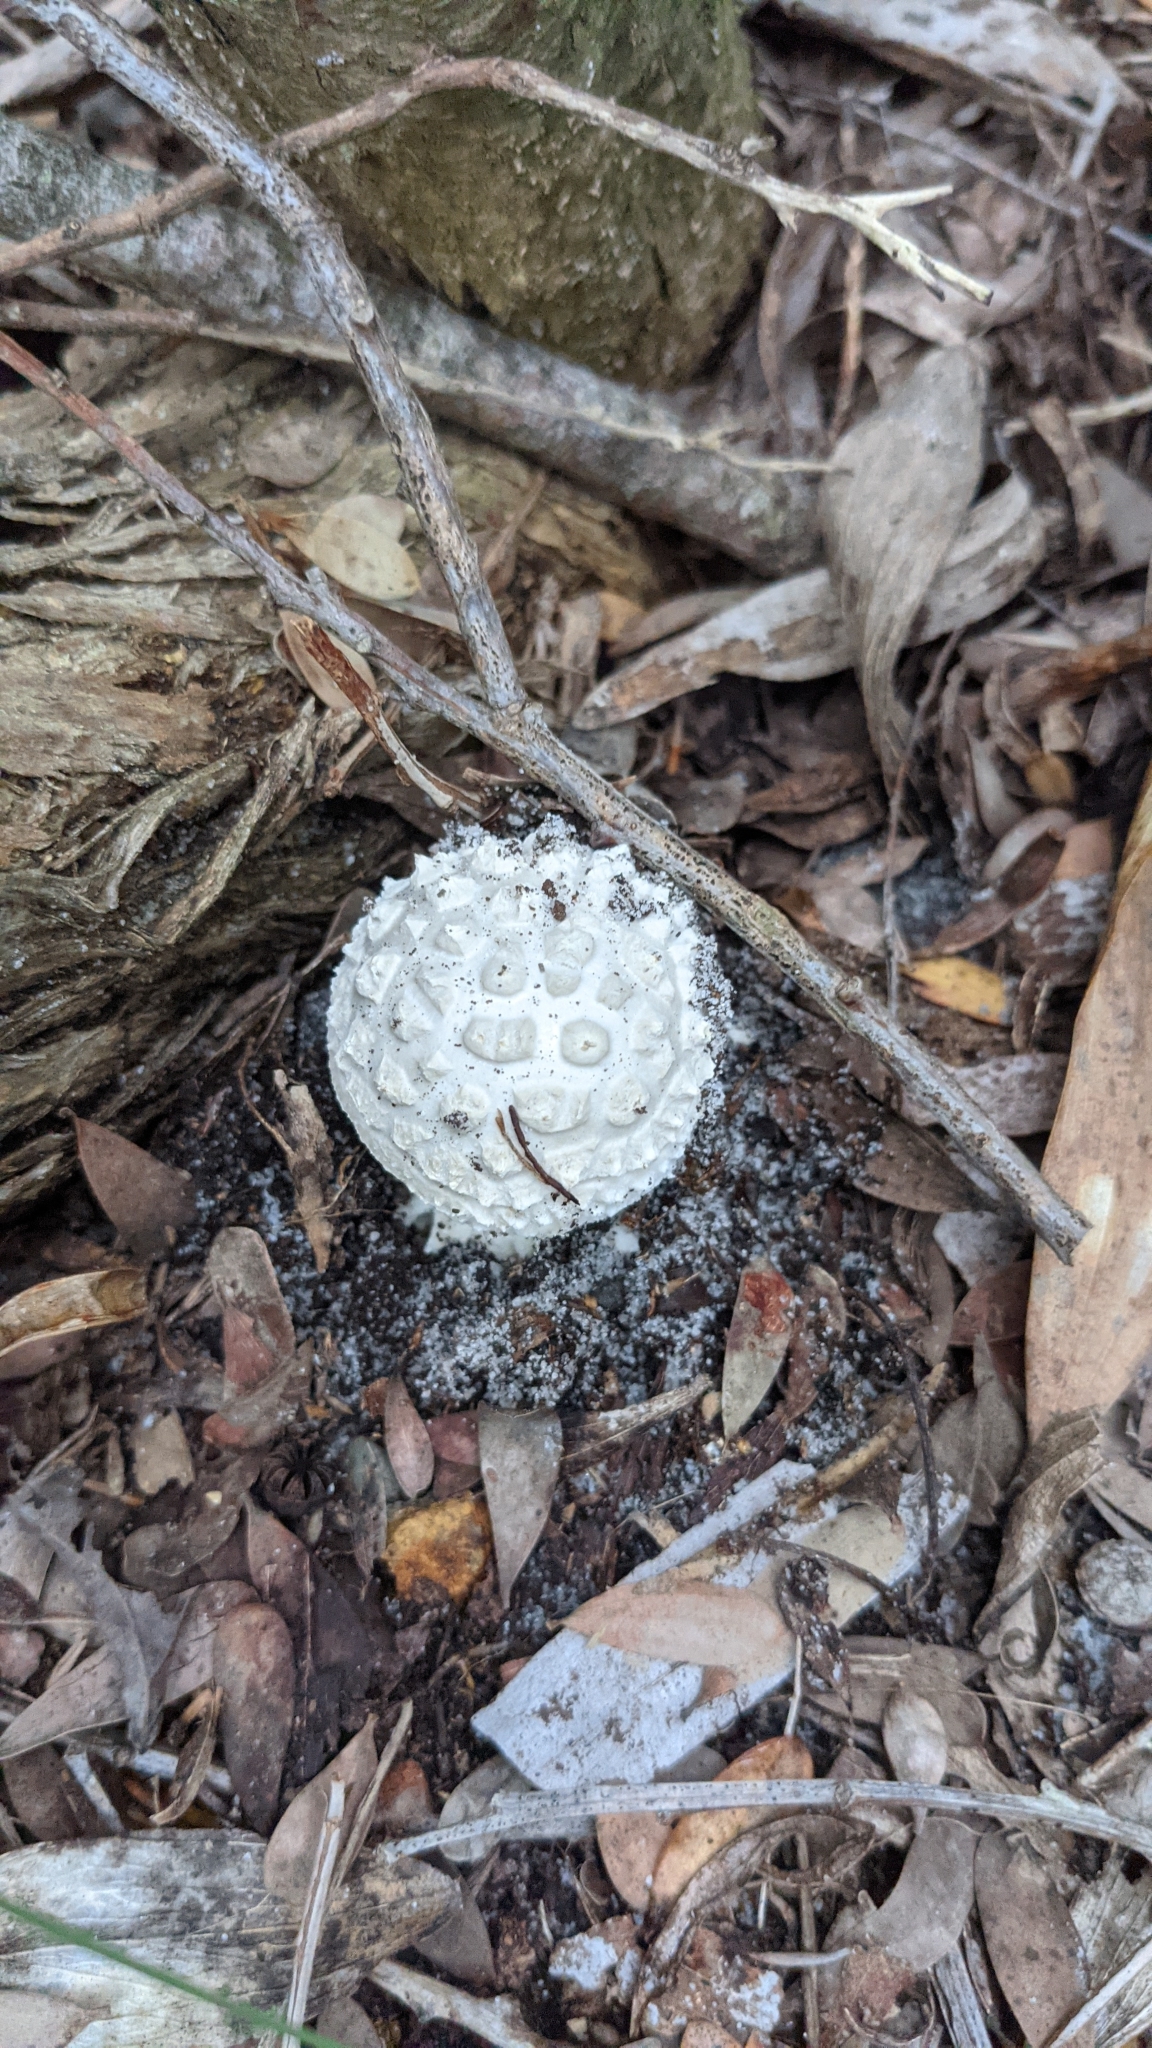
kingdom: Fungi
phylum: Basidiomycota
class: Agaricomycetes
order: Agaricales
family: Amanitaceae
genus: Amanita
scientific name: Amanita pyramidifera
